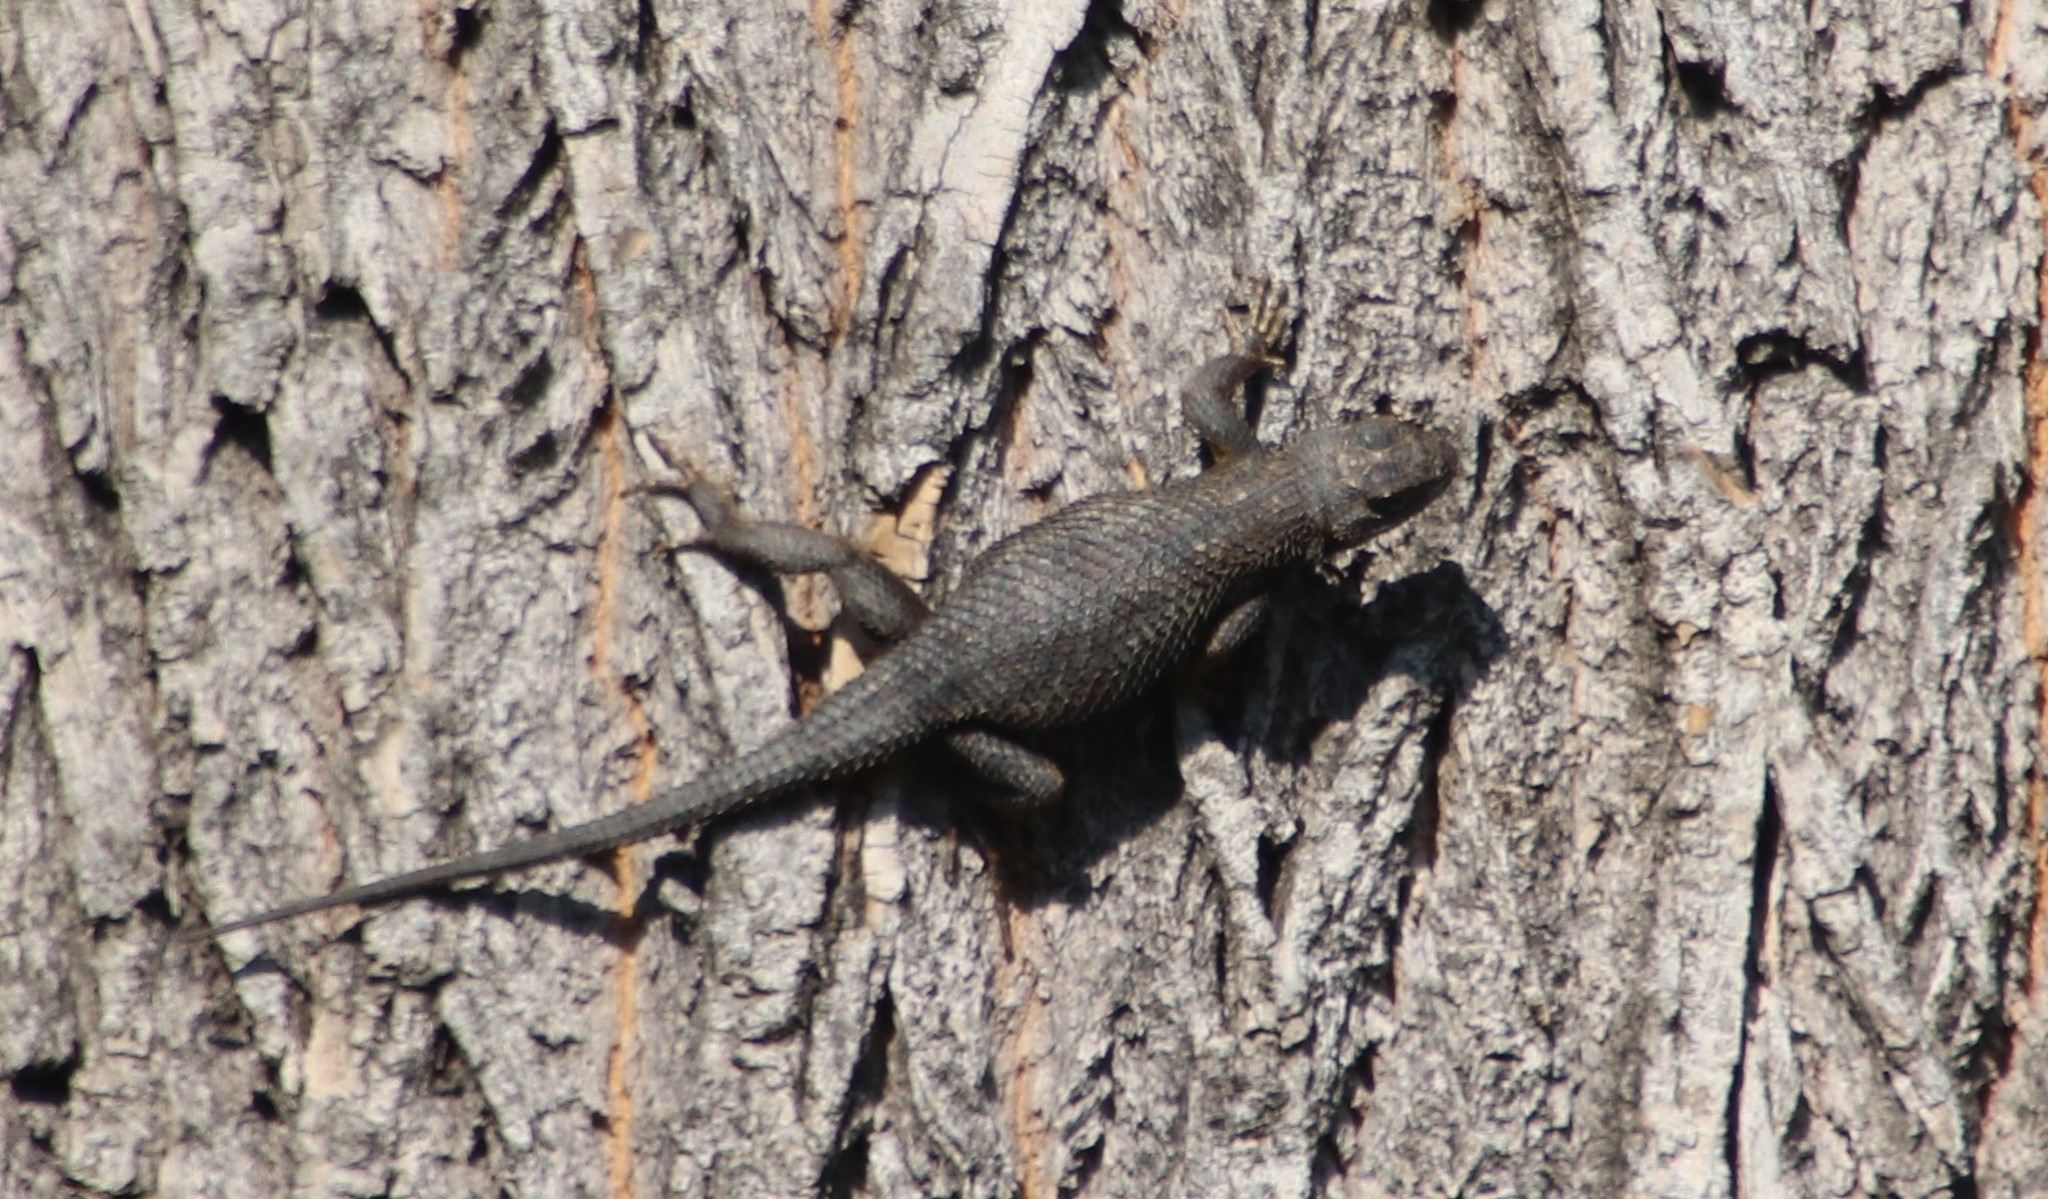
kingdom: Animalia
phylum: Chordata
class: Squamata
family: Phrynosomatidae
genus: Sceloporus
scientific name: Sceloporus occidentalis
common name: Western fence lizard
